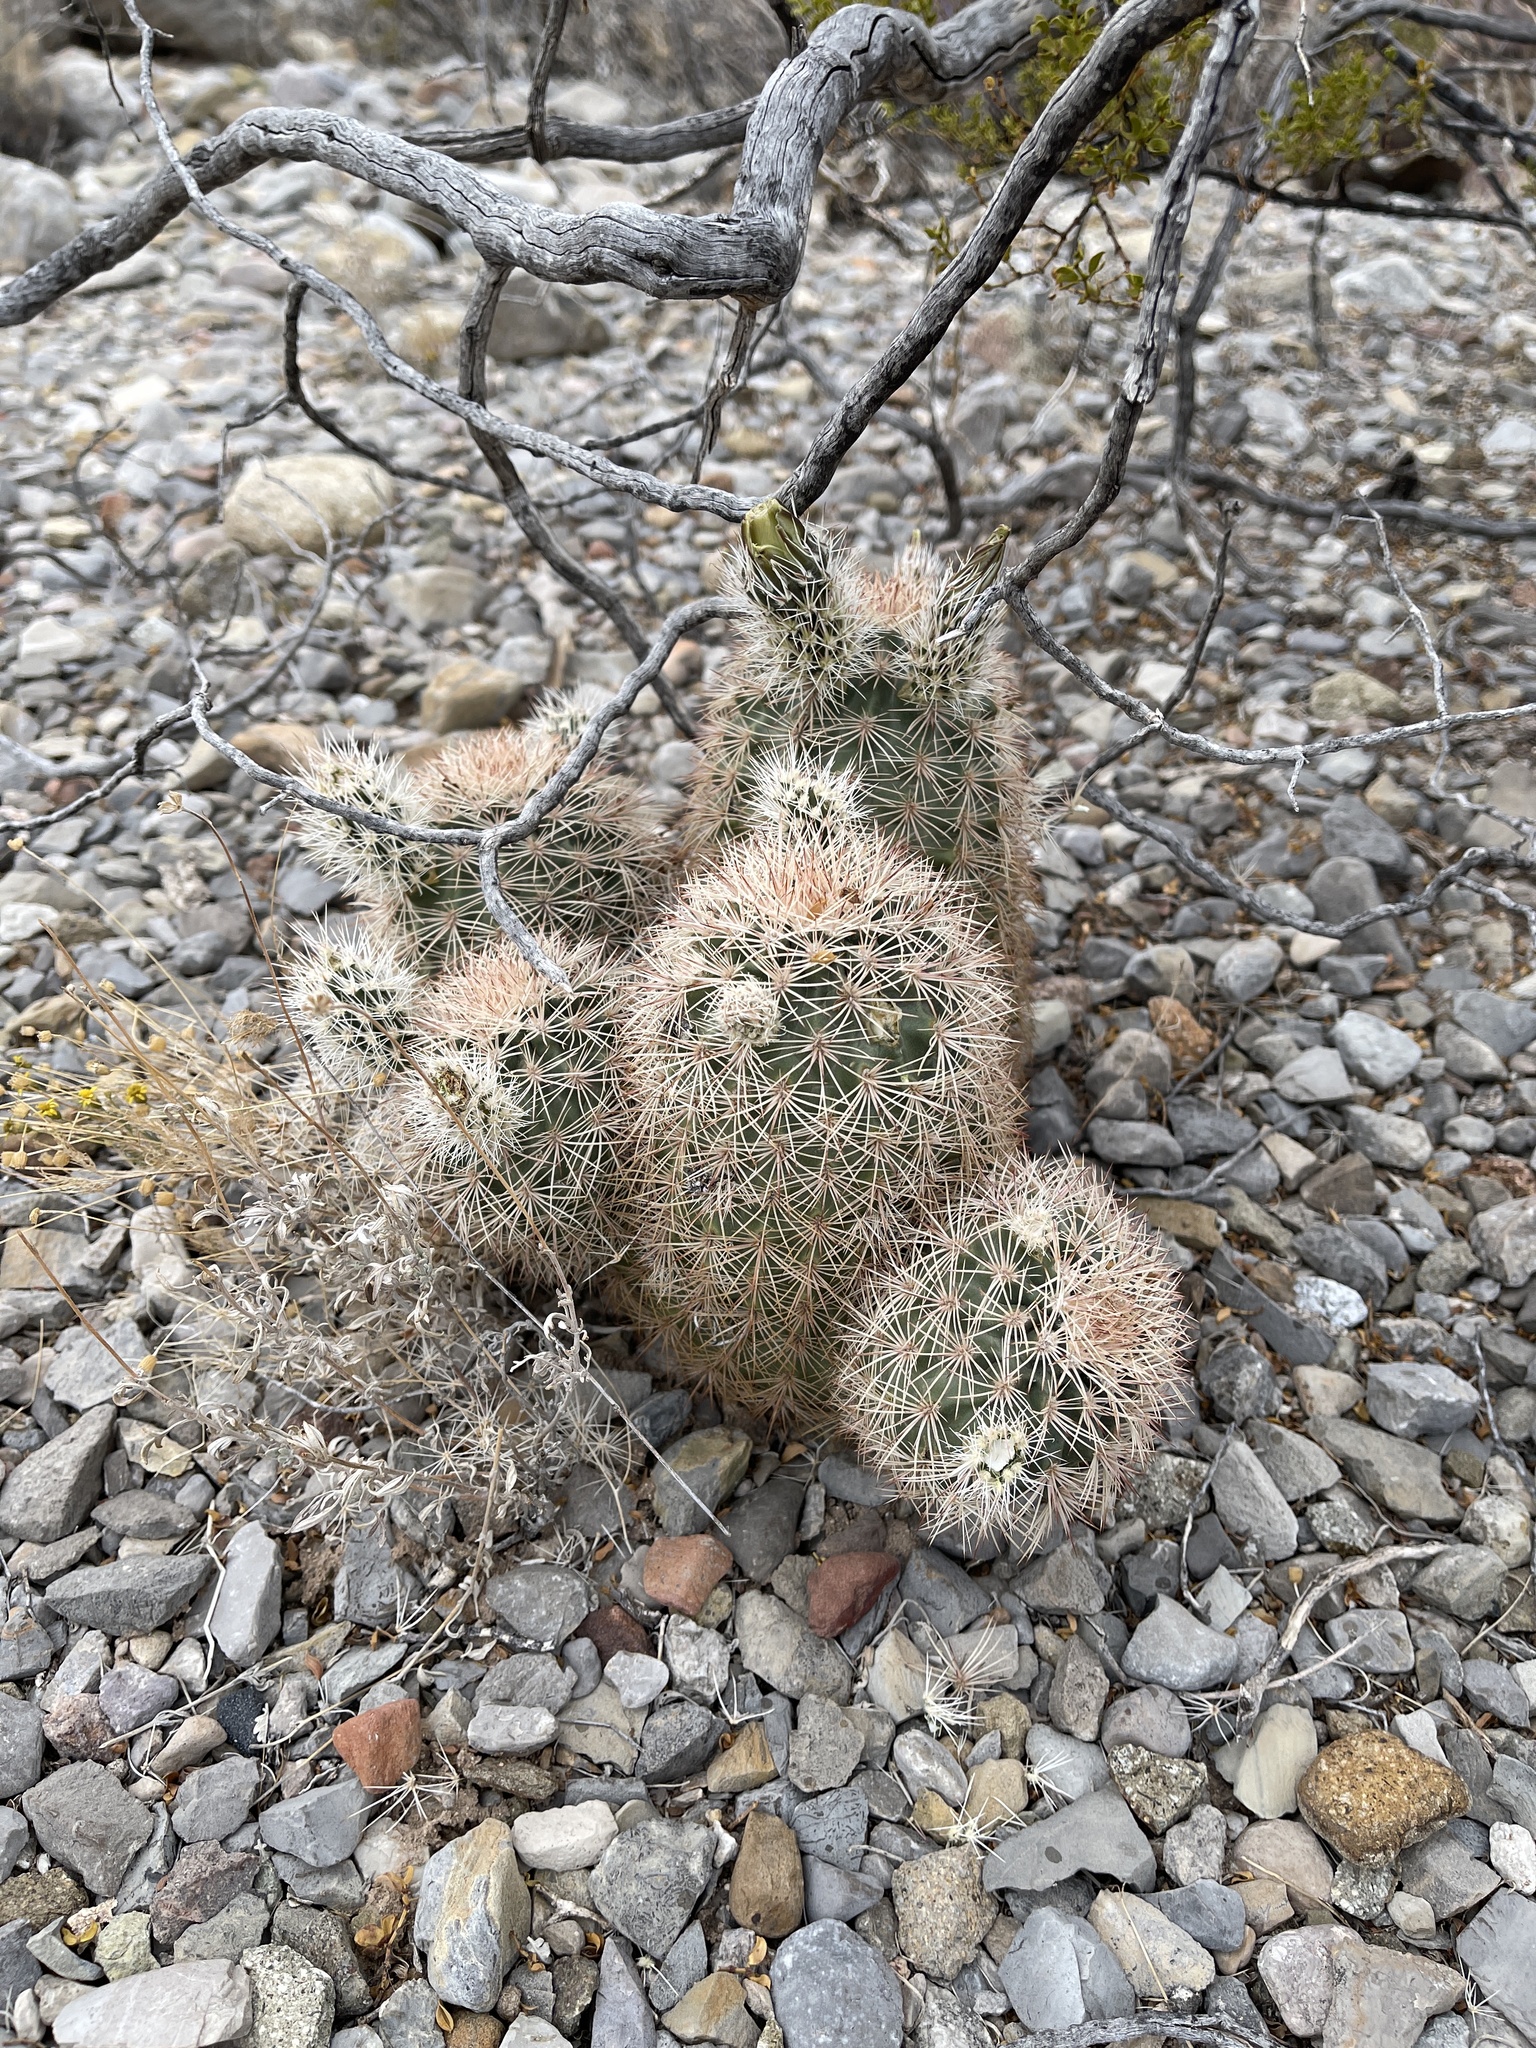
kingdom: Plantae
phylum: Tracheophyta
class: Magnoliopsida
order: Caryophyllales
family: Cactaceae
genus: Echinocereus
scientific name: Echinocereus dasyacanthus
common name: Spiny hedgehog cactus
